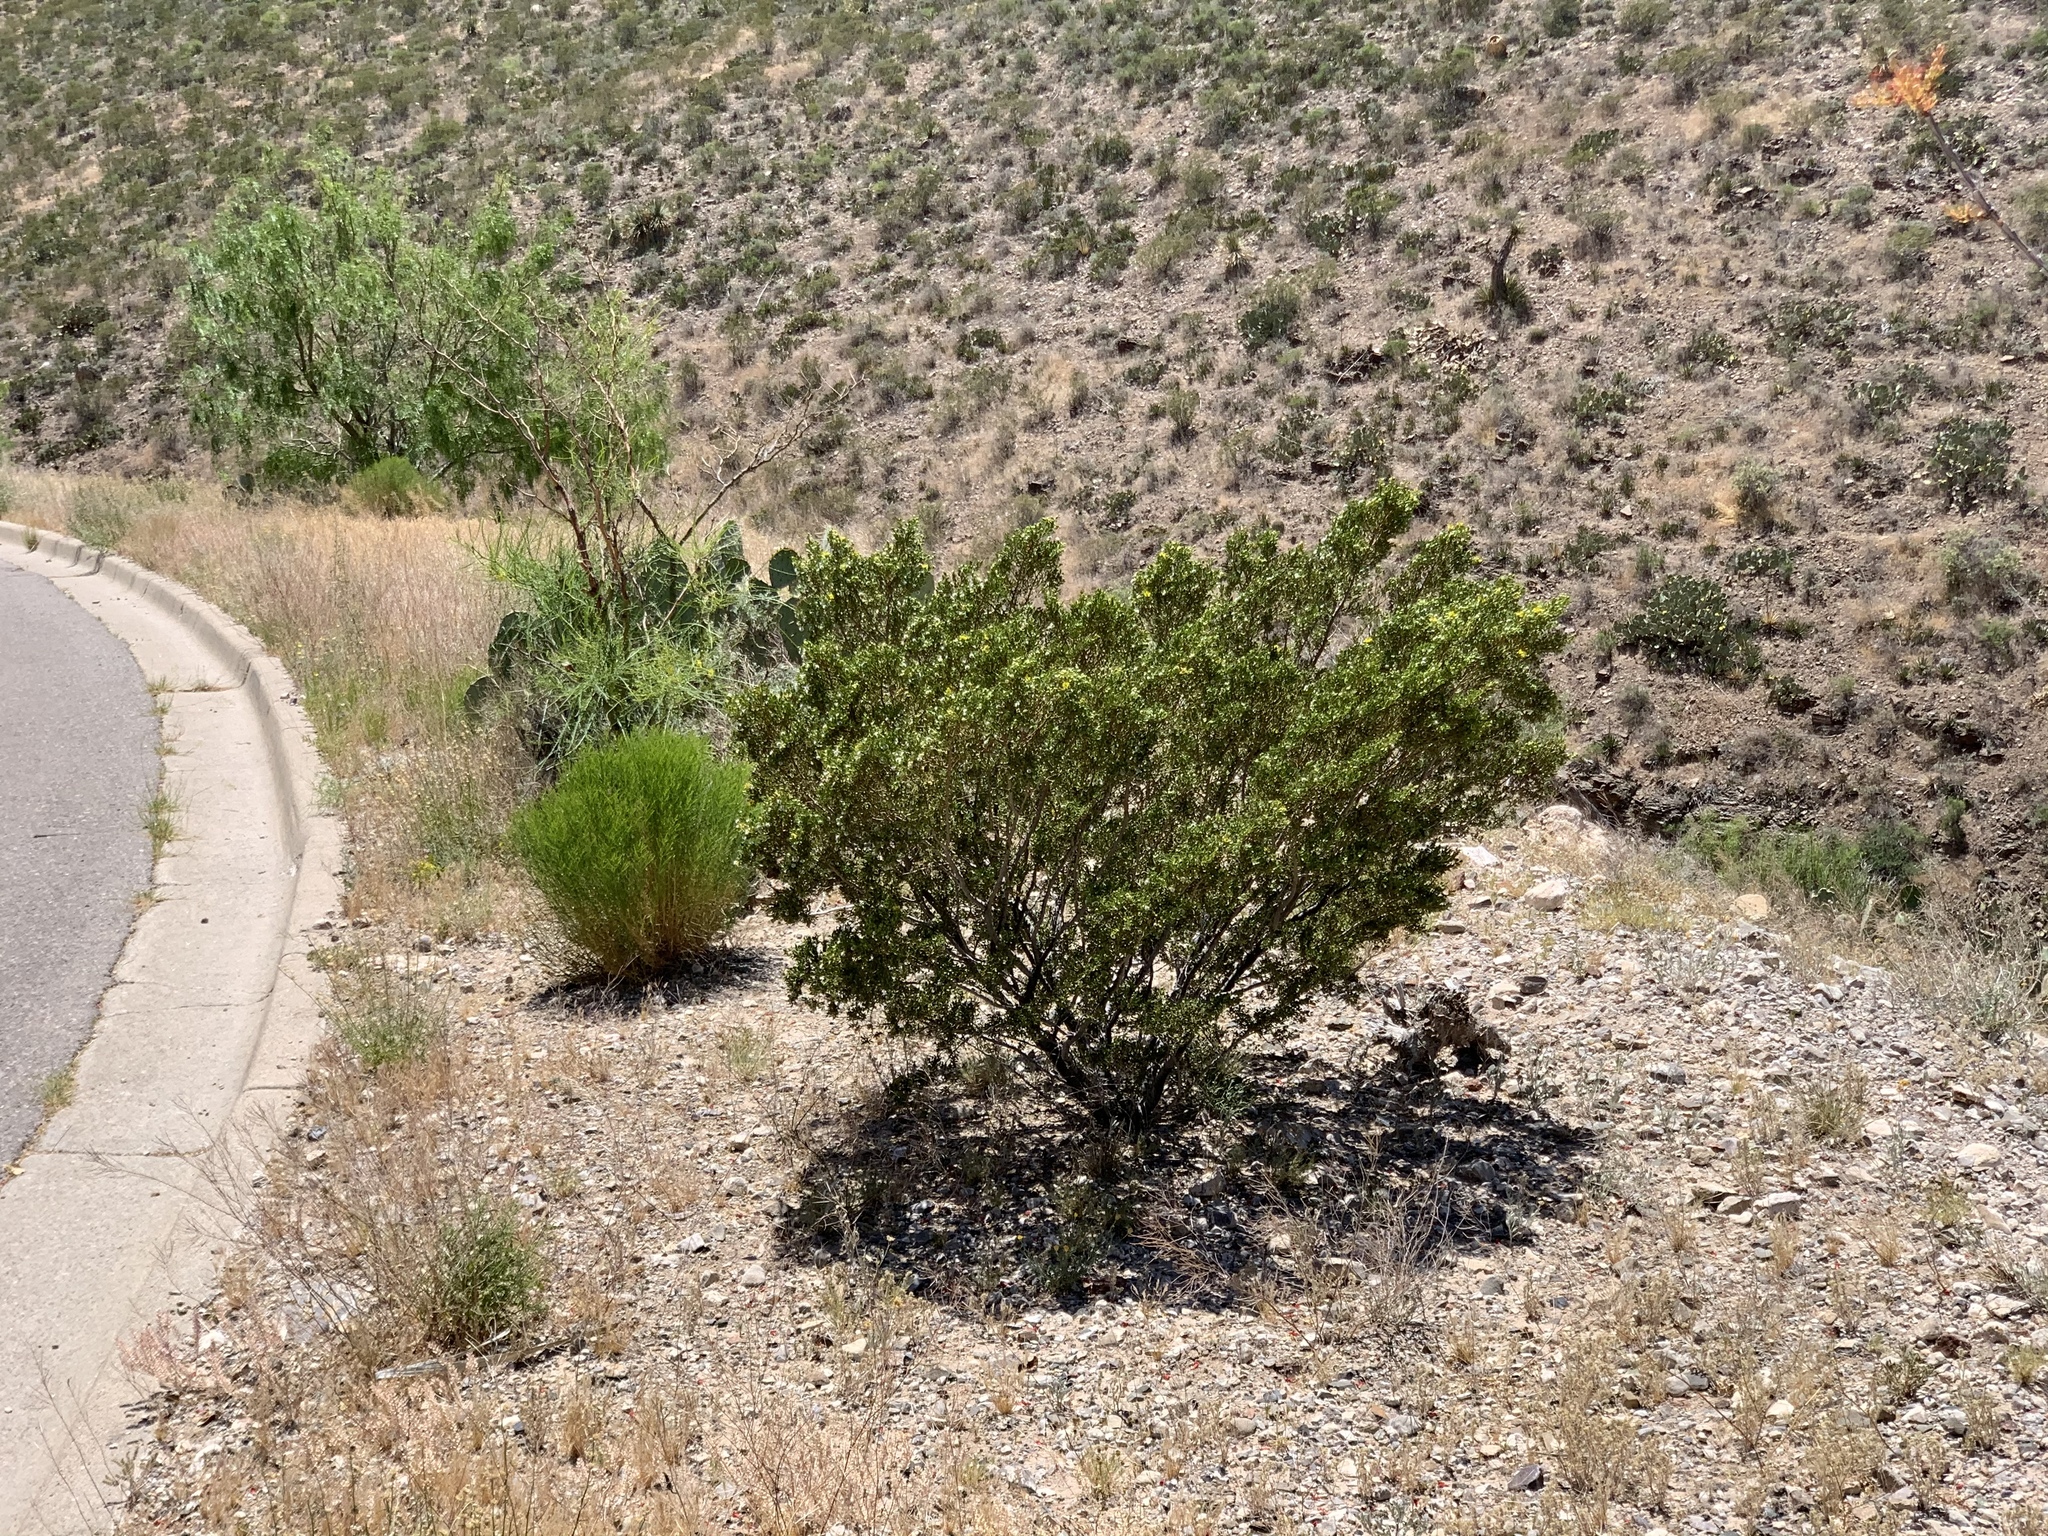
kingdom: Plantae
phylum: Tracheophyta
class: Magnoliopsida
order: Zygophyllales
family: Zygophyllaceae
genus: Larrea
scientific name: Larrea tridentata
